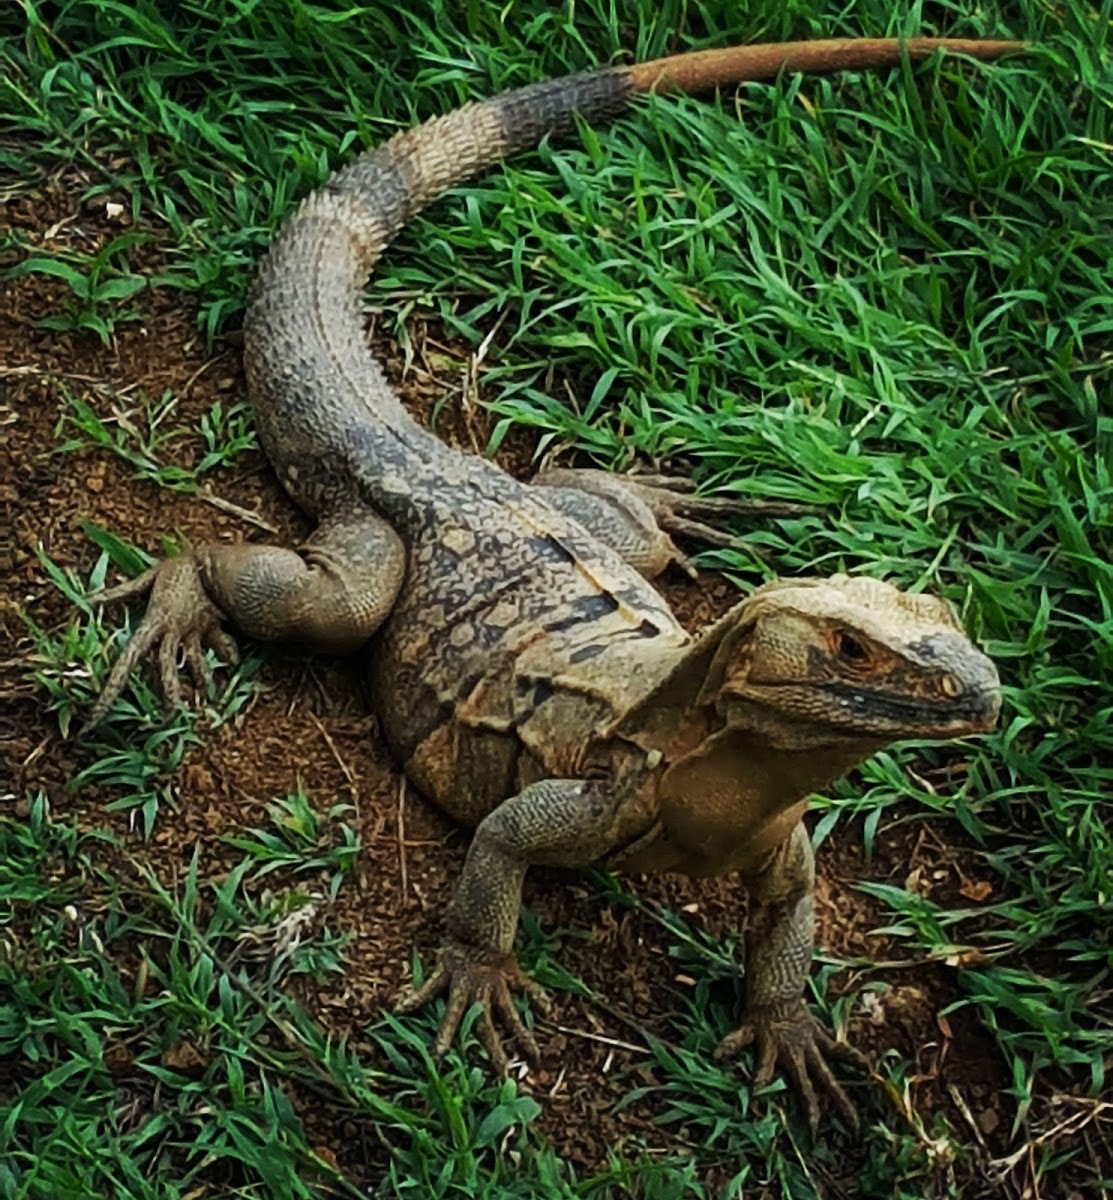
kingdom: Animalia
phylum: Chordata
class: Squamata
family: Iguanidae
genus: Ctenosaura
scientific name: Ctenosaura similis
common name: Black spiny-tailed iguana
